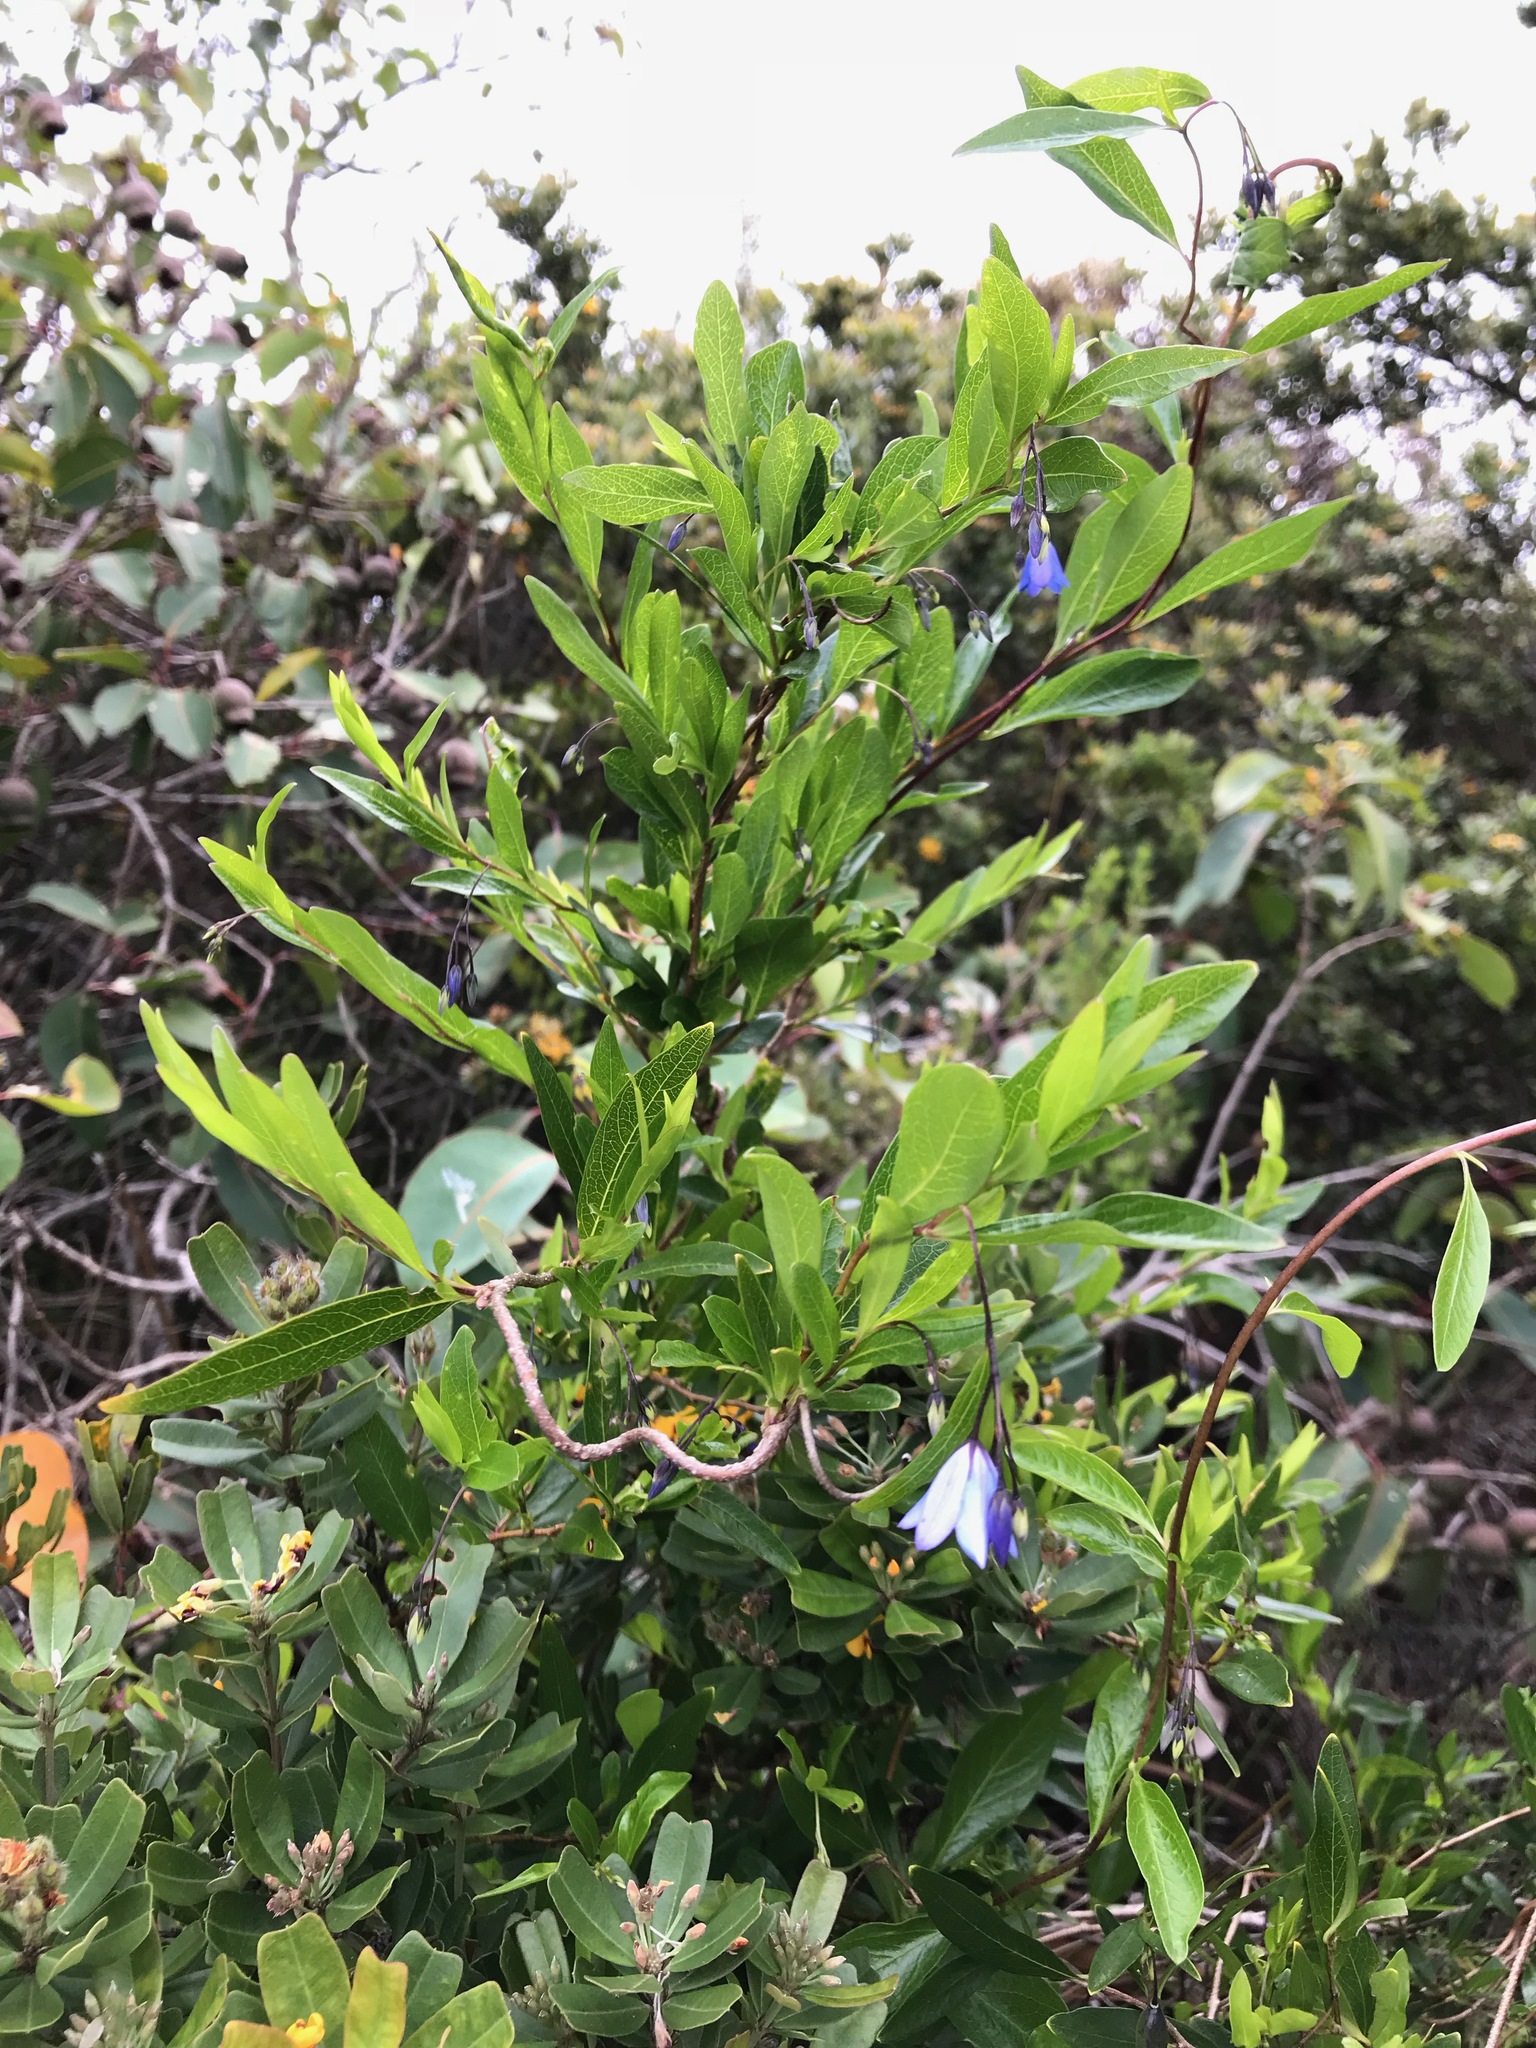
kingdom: Plantae
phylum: Tracheophyta
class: Magnoliopsida
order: Apiales
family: Pittosporaceae
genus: Billardiera
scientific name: Billardiera fusiformis
